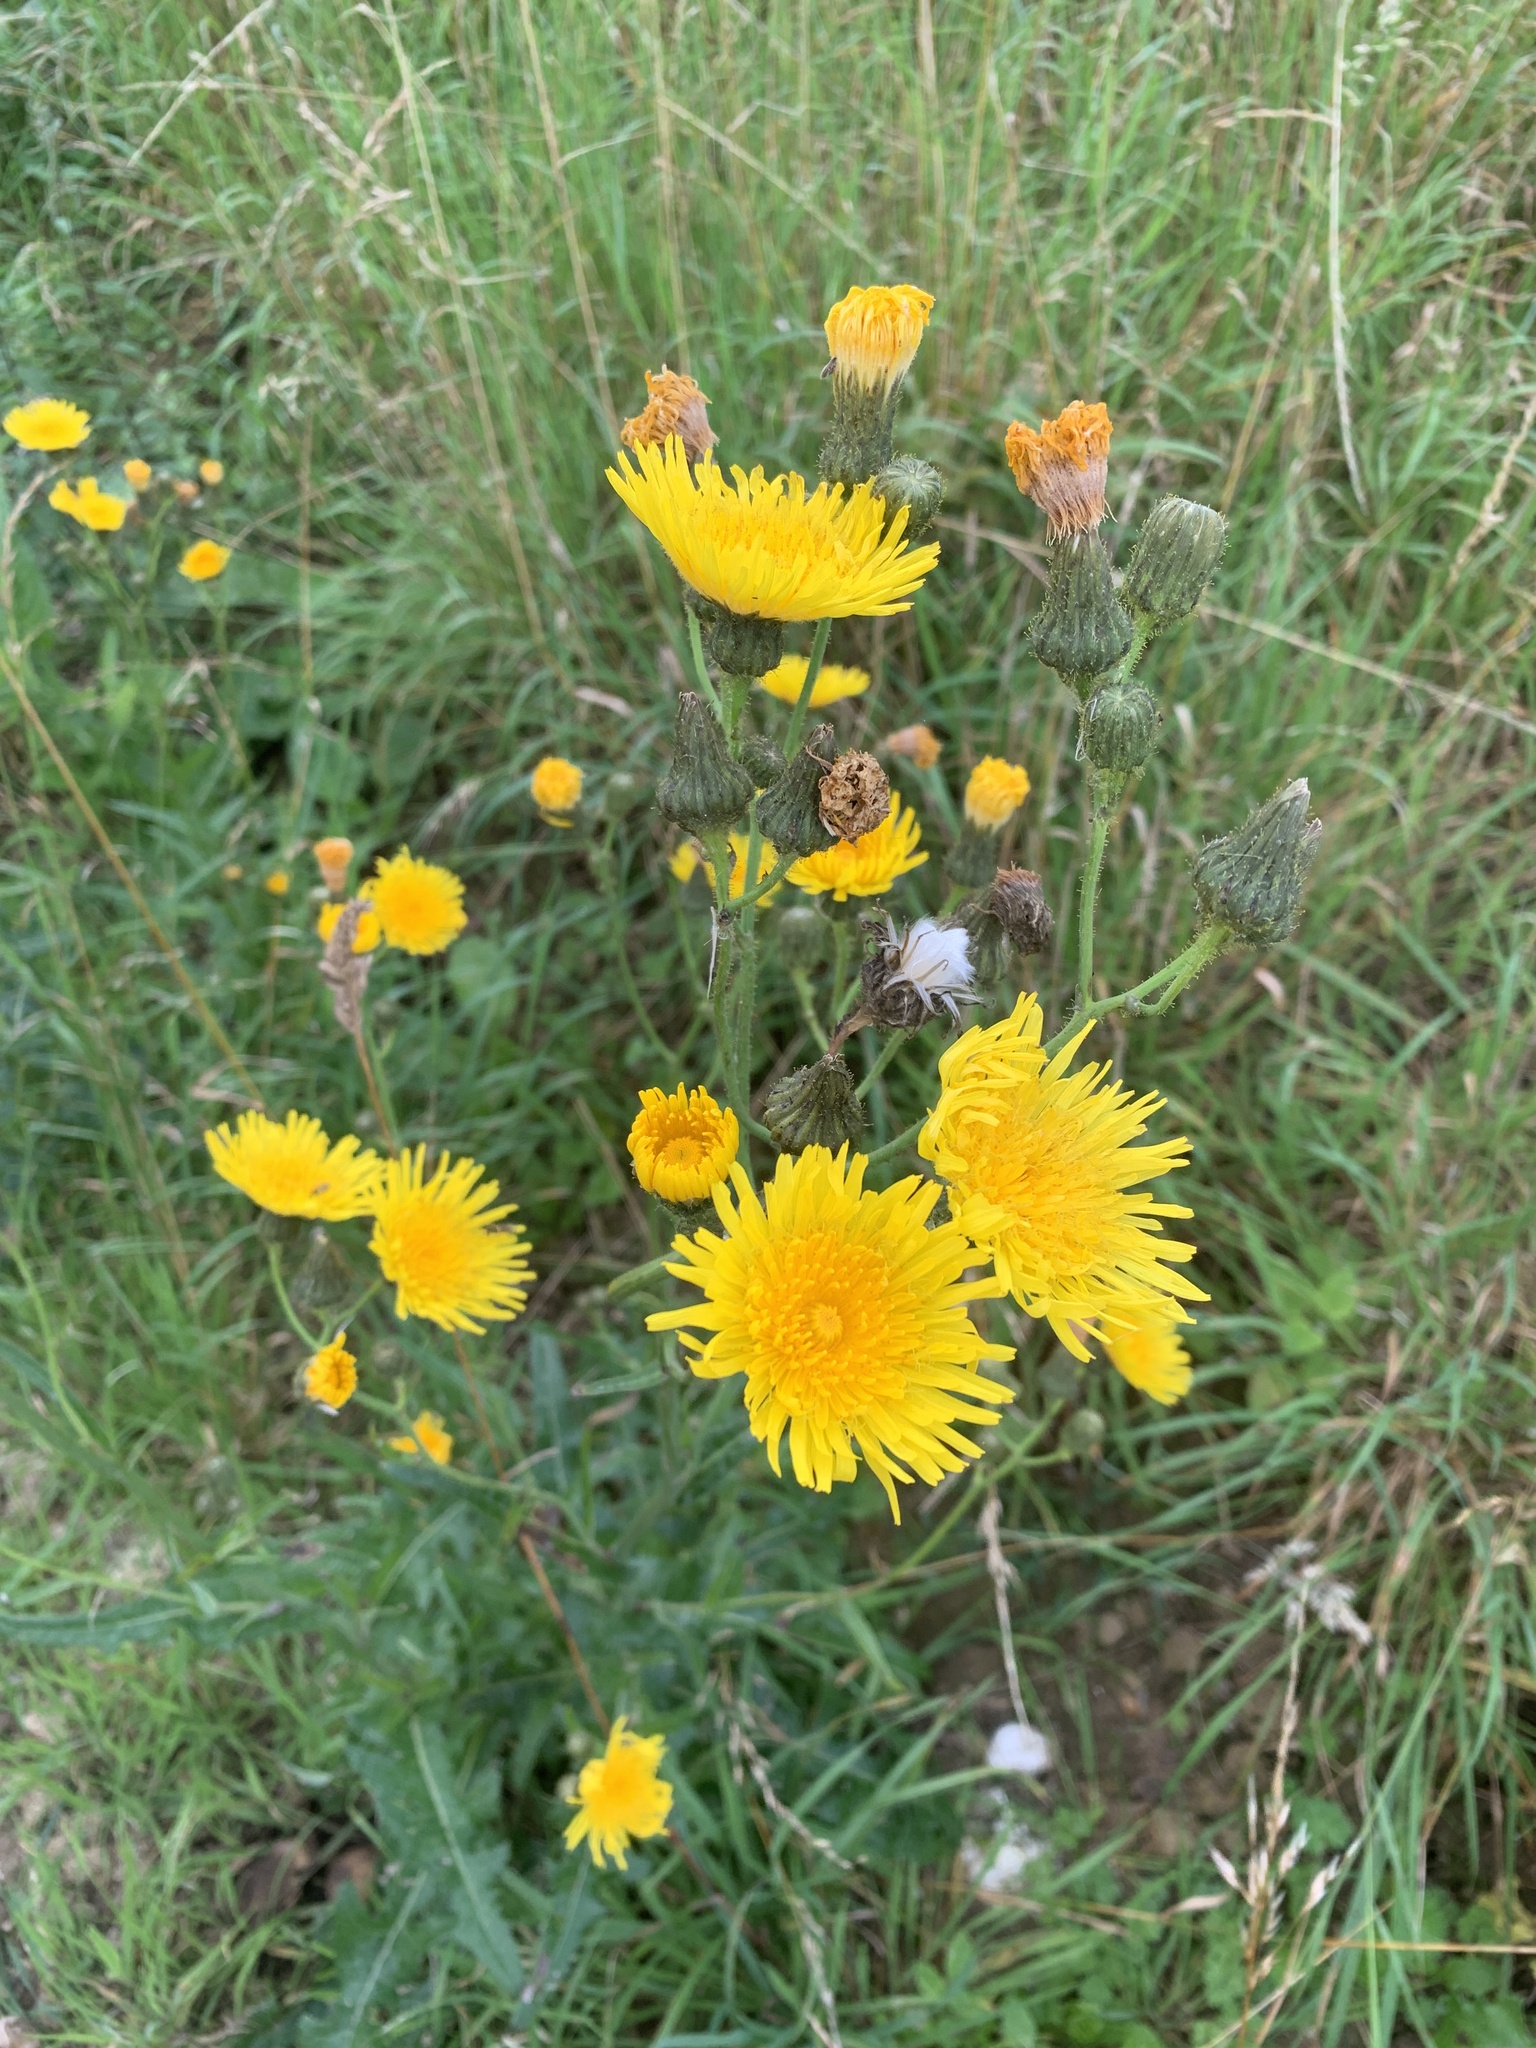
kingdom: Plantae
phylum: Tracheophyta
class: Magnoliopsida
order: Asterales
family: Asteraceae
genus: Sonchus
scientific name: Sonchus arvensis
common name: Perennial sow-thistle
